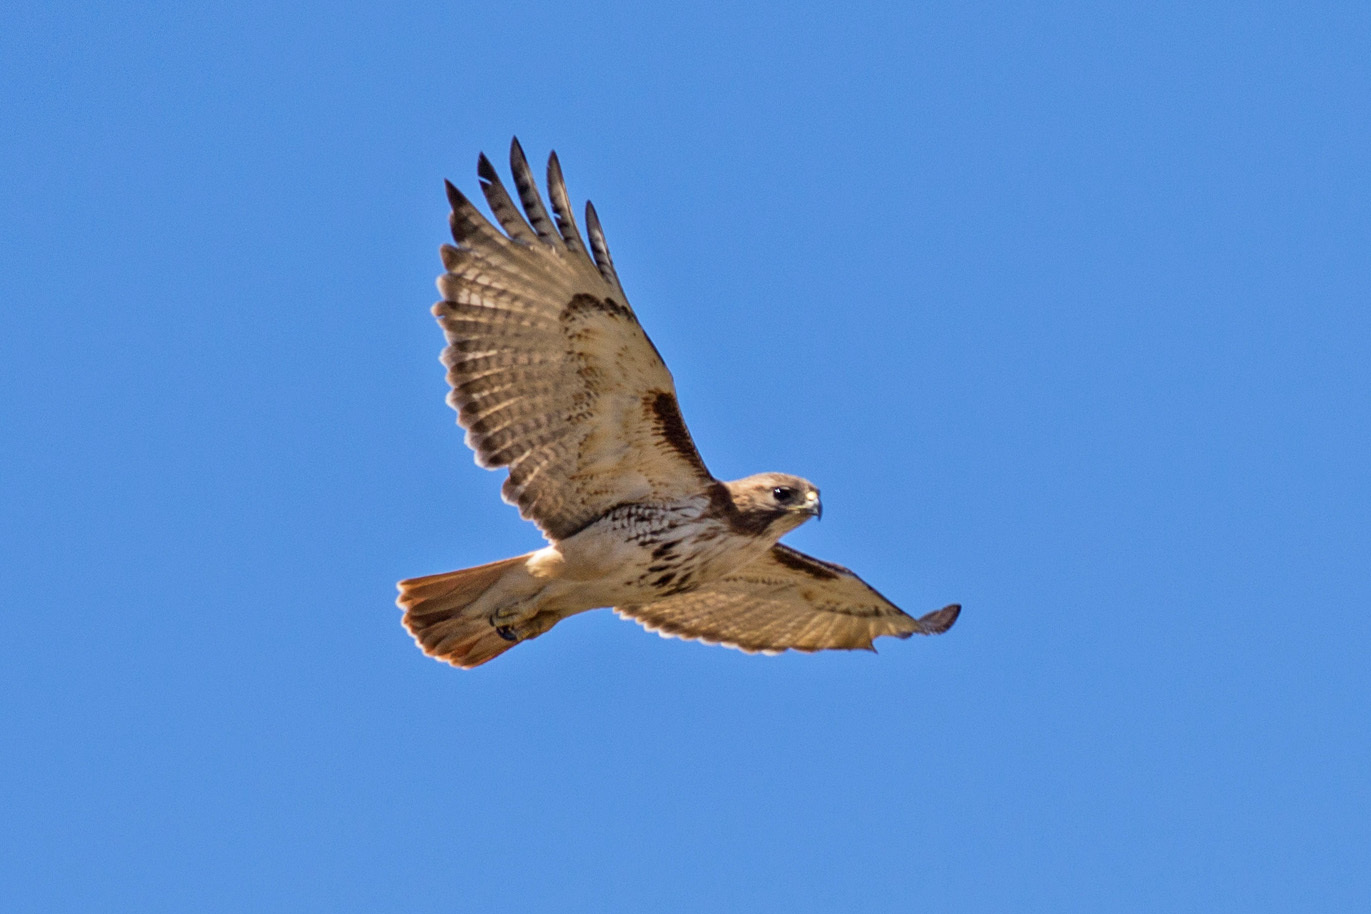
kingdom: Animalia
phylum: Chordata
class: Aves
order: Accipitriformes
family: Accipitridae
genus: Buteo
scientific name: Buteo jamaicensis
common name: Red-tailed hawk
